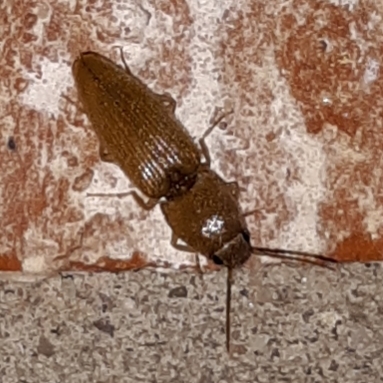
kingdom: Animalia
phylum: Arthropoda
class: Insecta
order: Coleoptera
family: Elateridae
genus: Monocrepidius
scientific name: Monocrepidius scissus
